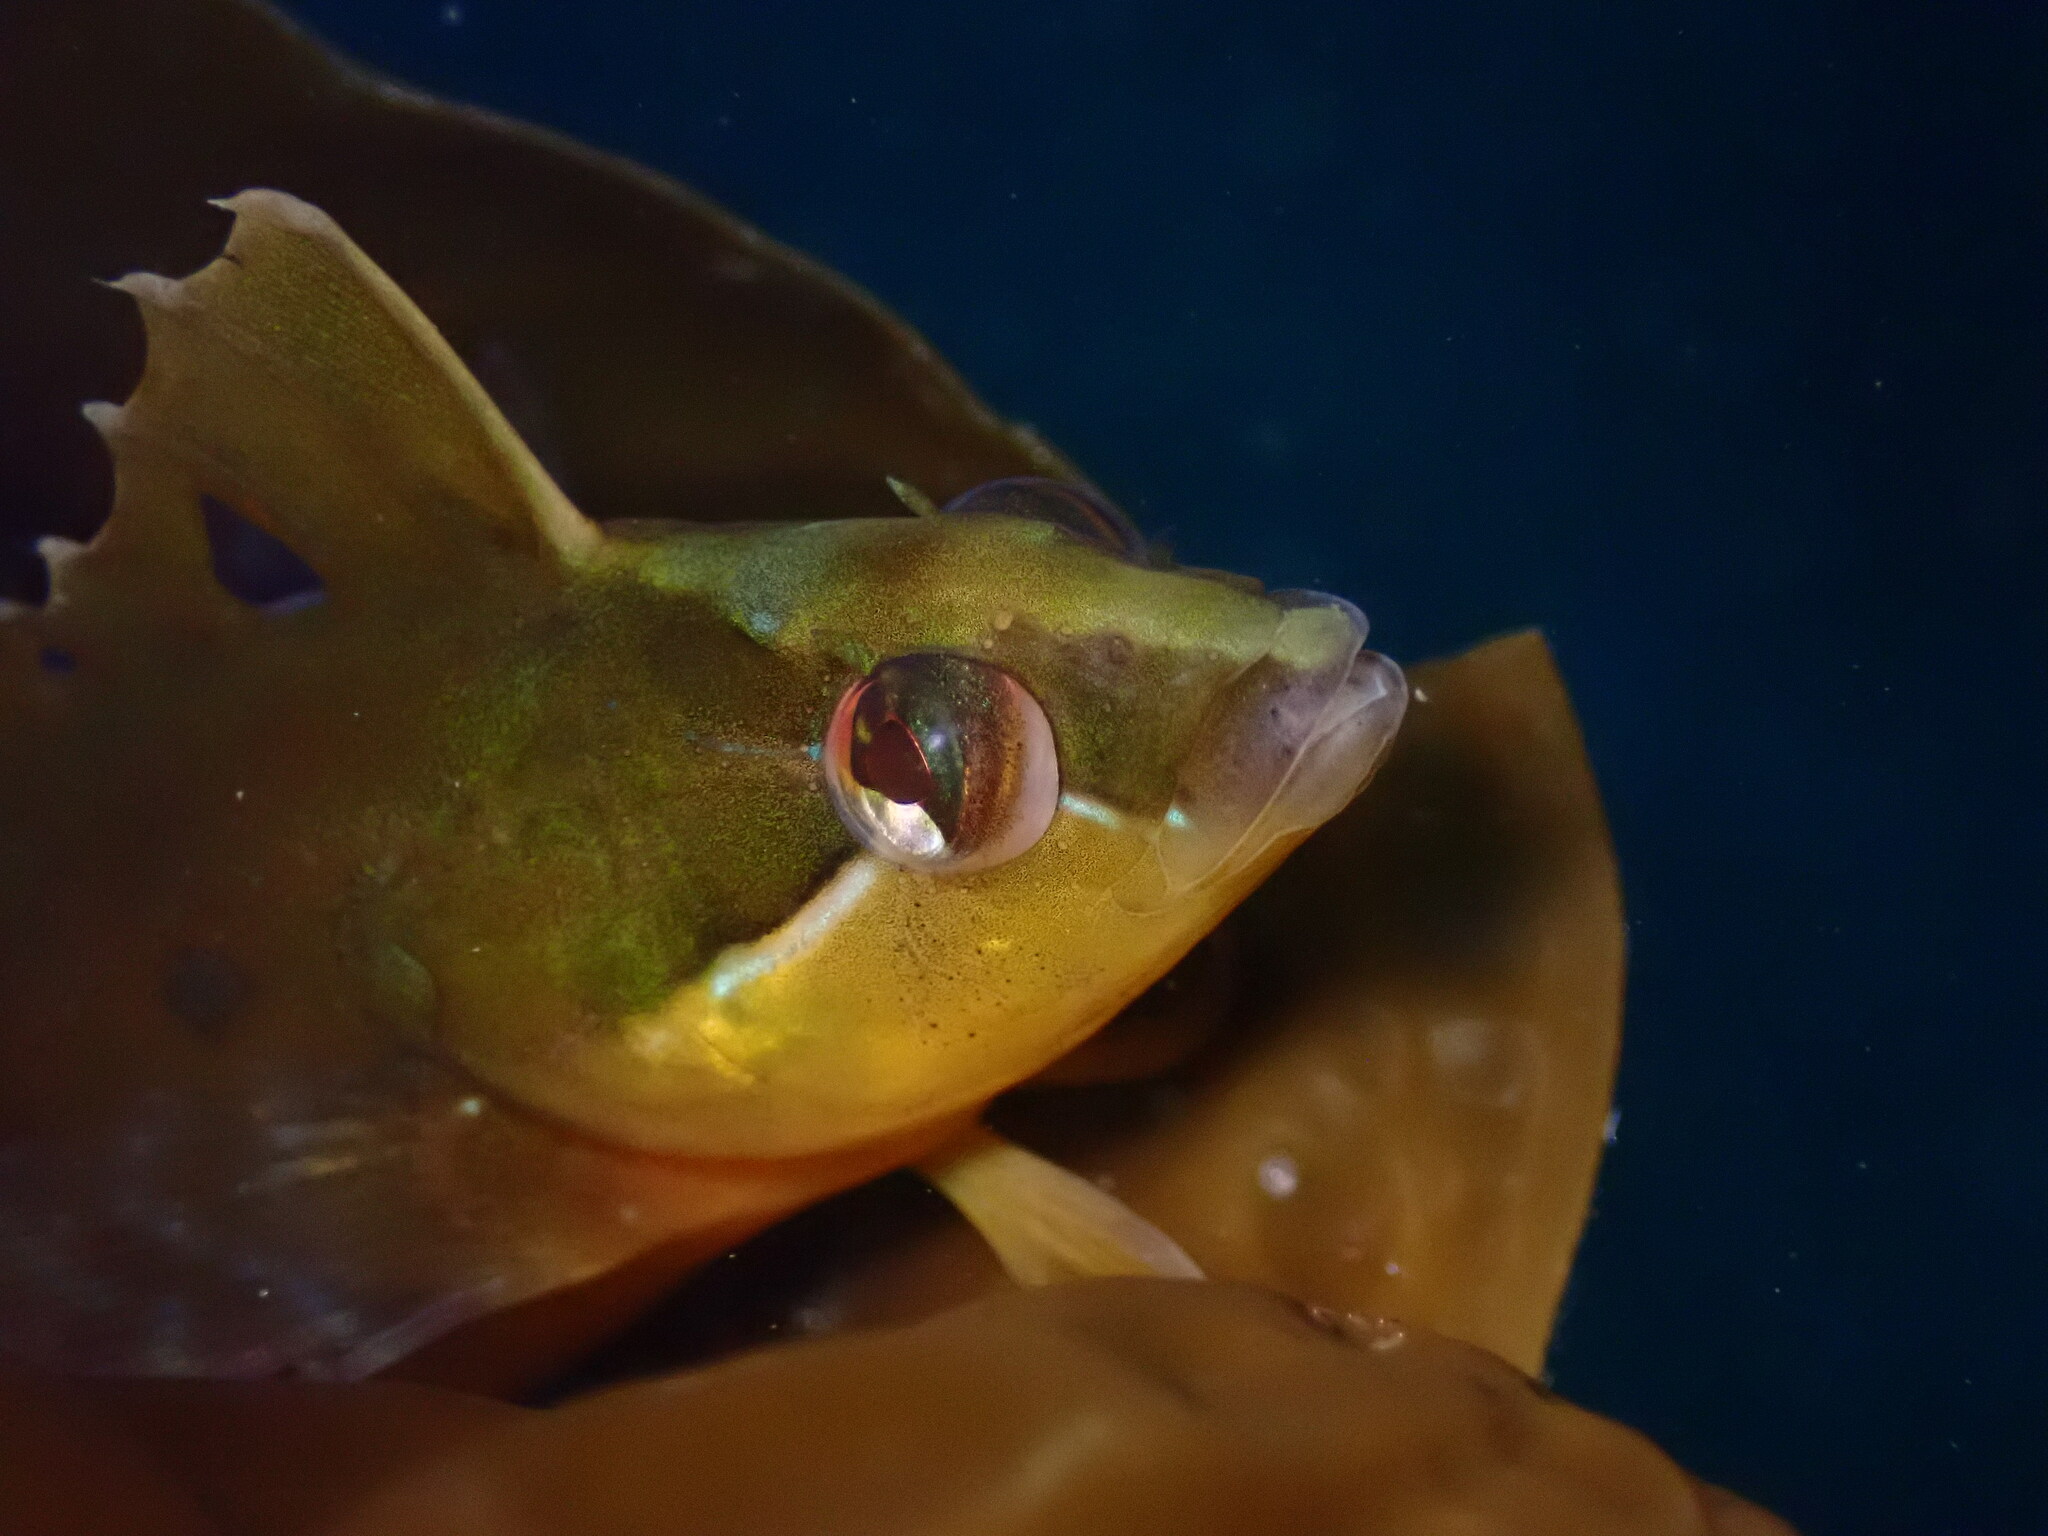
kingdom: Animalia
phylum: Chordata
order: Perciformes
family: Clinidae
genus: Gibbonsia
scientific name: Gibbonsia metzi
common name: Striped kelpfish
